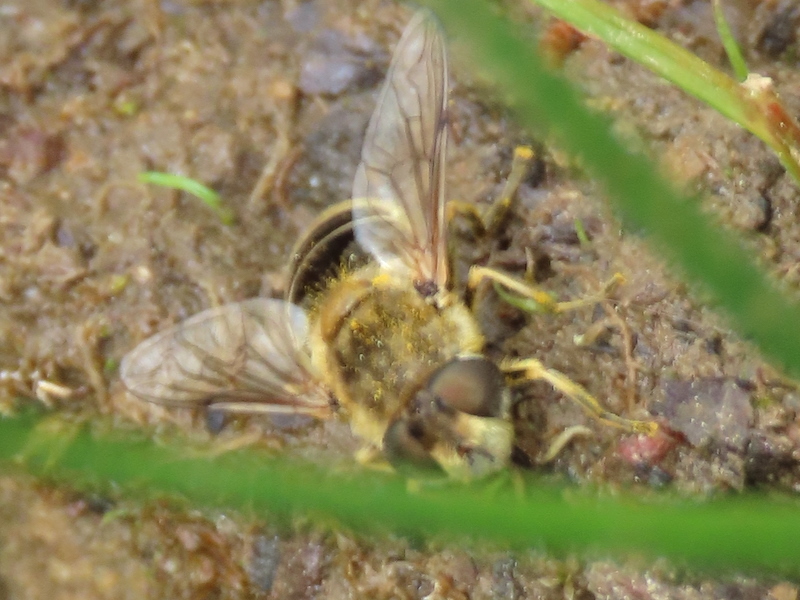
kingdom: Animalia
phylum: Arthropoda
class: Insecta
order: Diptera
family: Syrphidae
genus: Eristalis
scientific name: Eristalis arbustorum
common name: Hover fly
